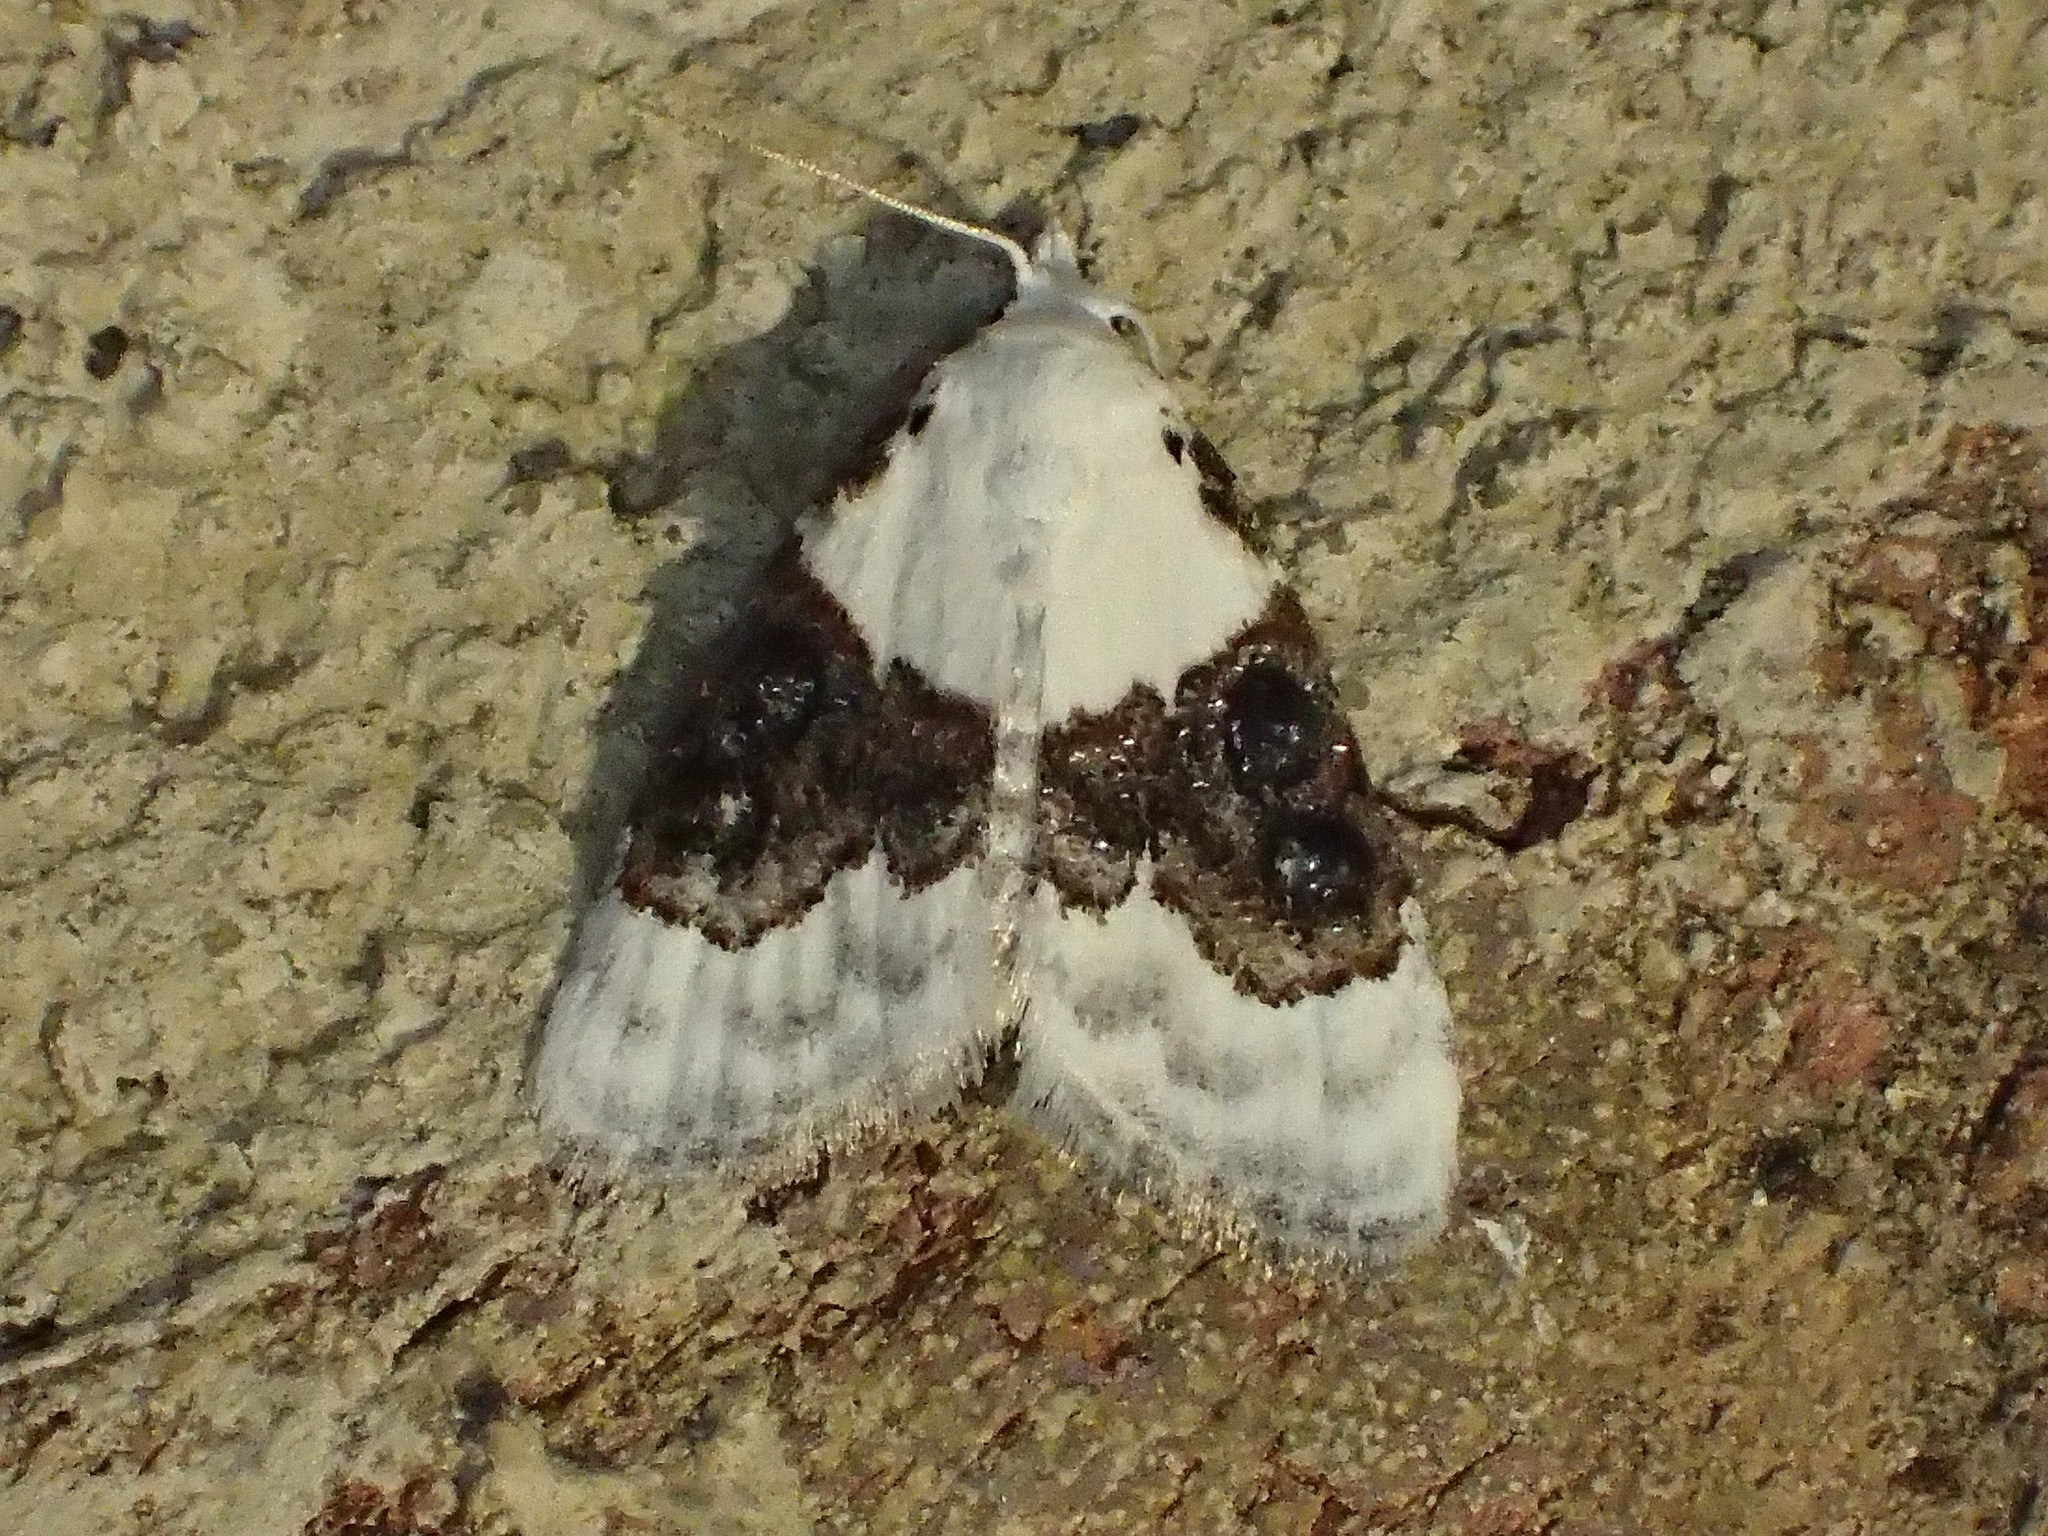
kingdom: Animalia
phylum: Arthropoda
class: Insecta
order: Lepidoptera
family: Nolidae
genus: Nola
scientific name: Nola pustulata
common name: Sharp-blotched nola moth
